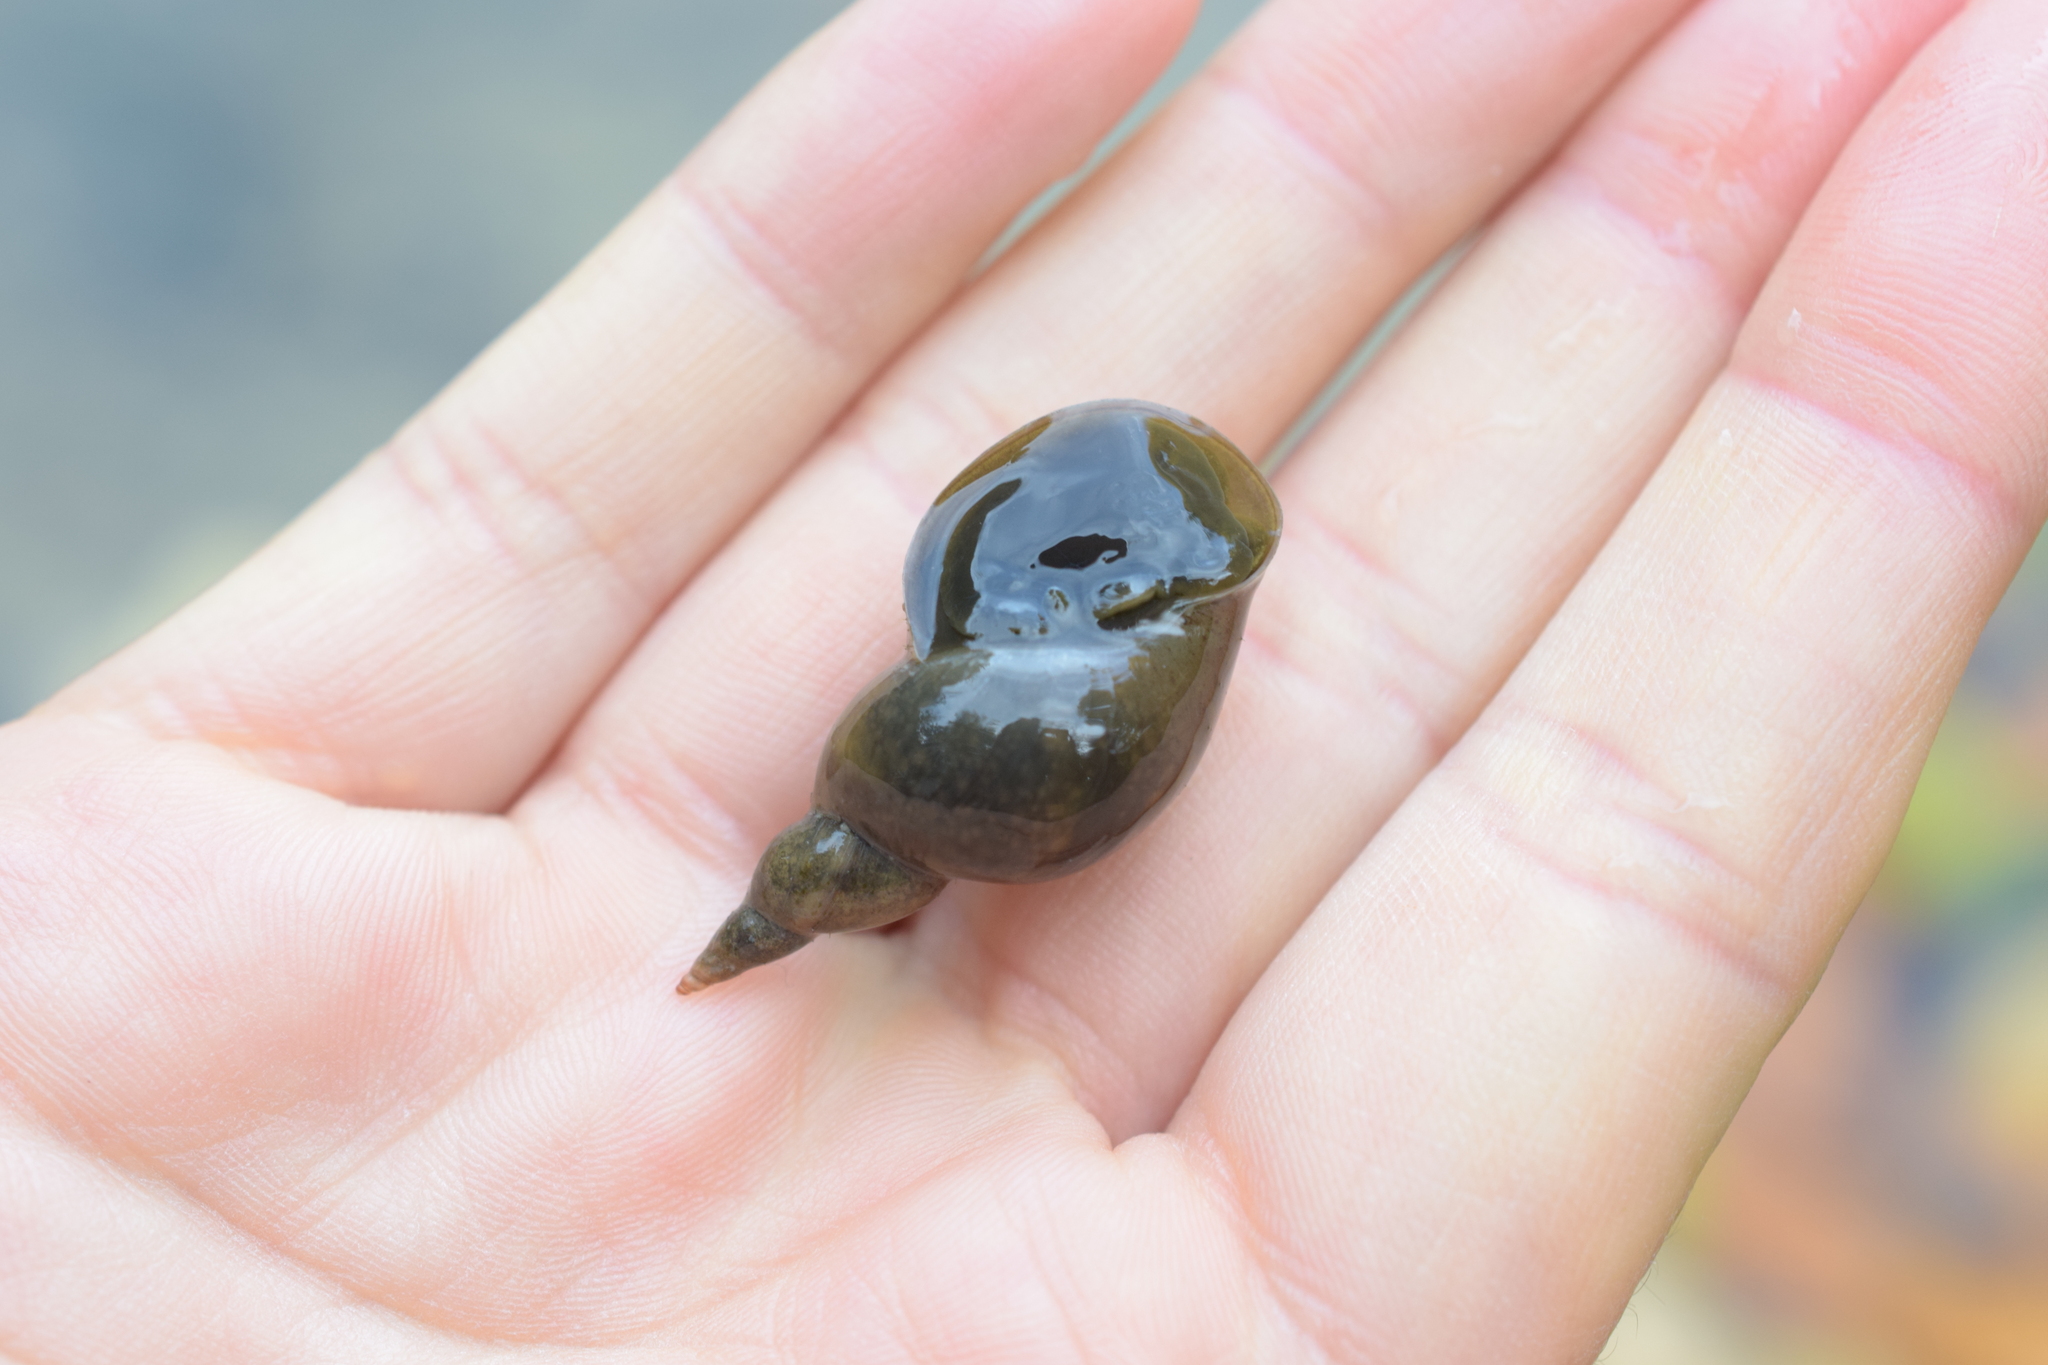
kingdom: Animalia
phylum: Mollusca
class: Gastropoda
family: Lymnaeidae
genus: Lymnaea
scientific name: Lymnaea stagnalis
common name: Great pond snail
